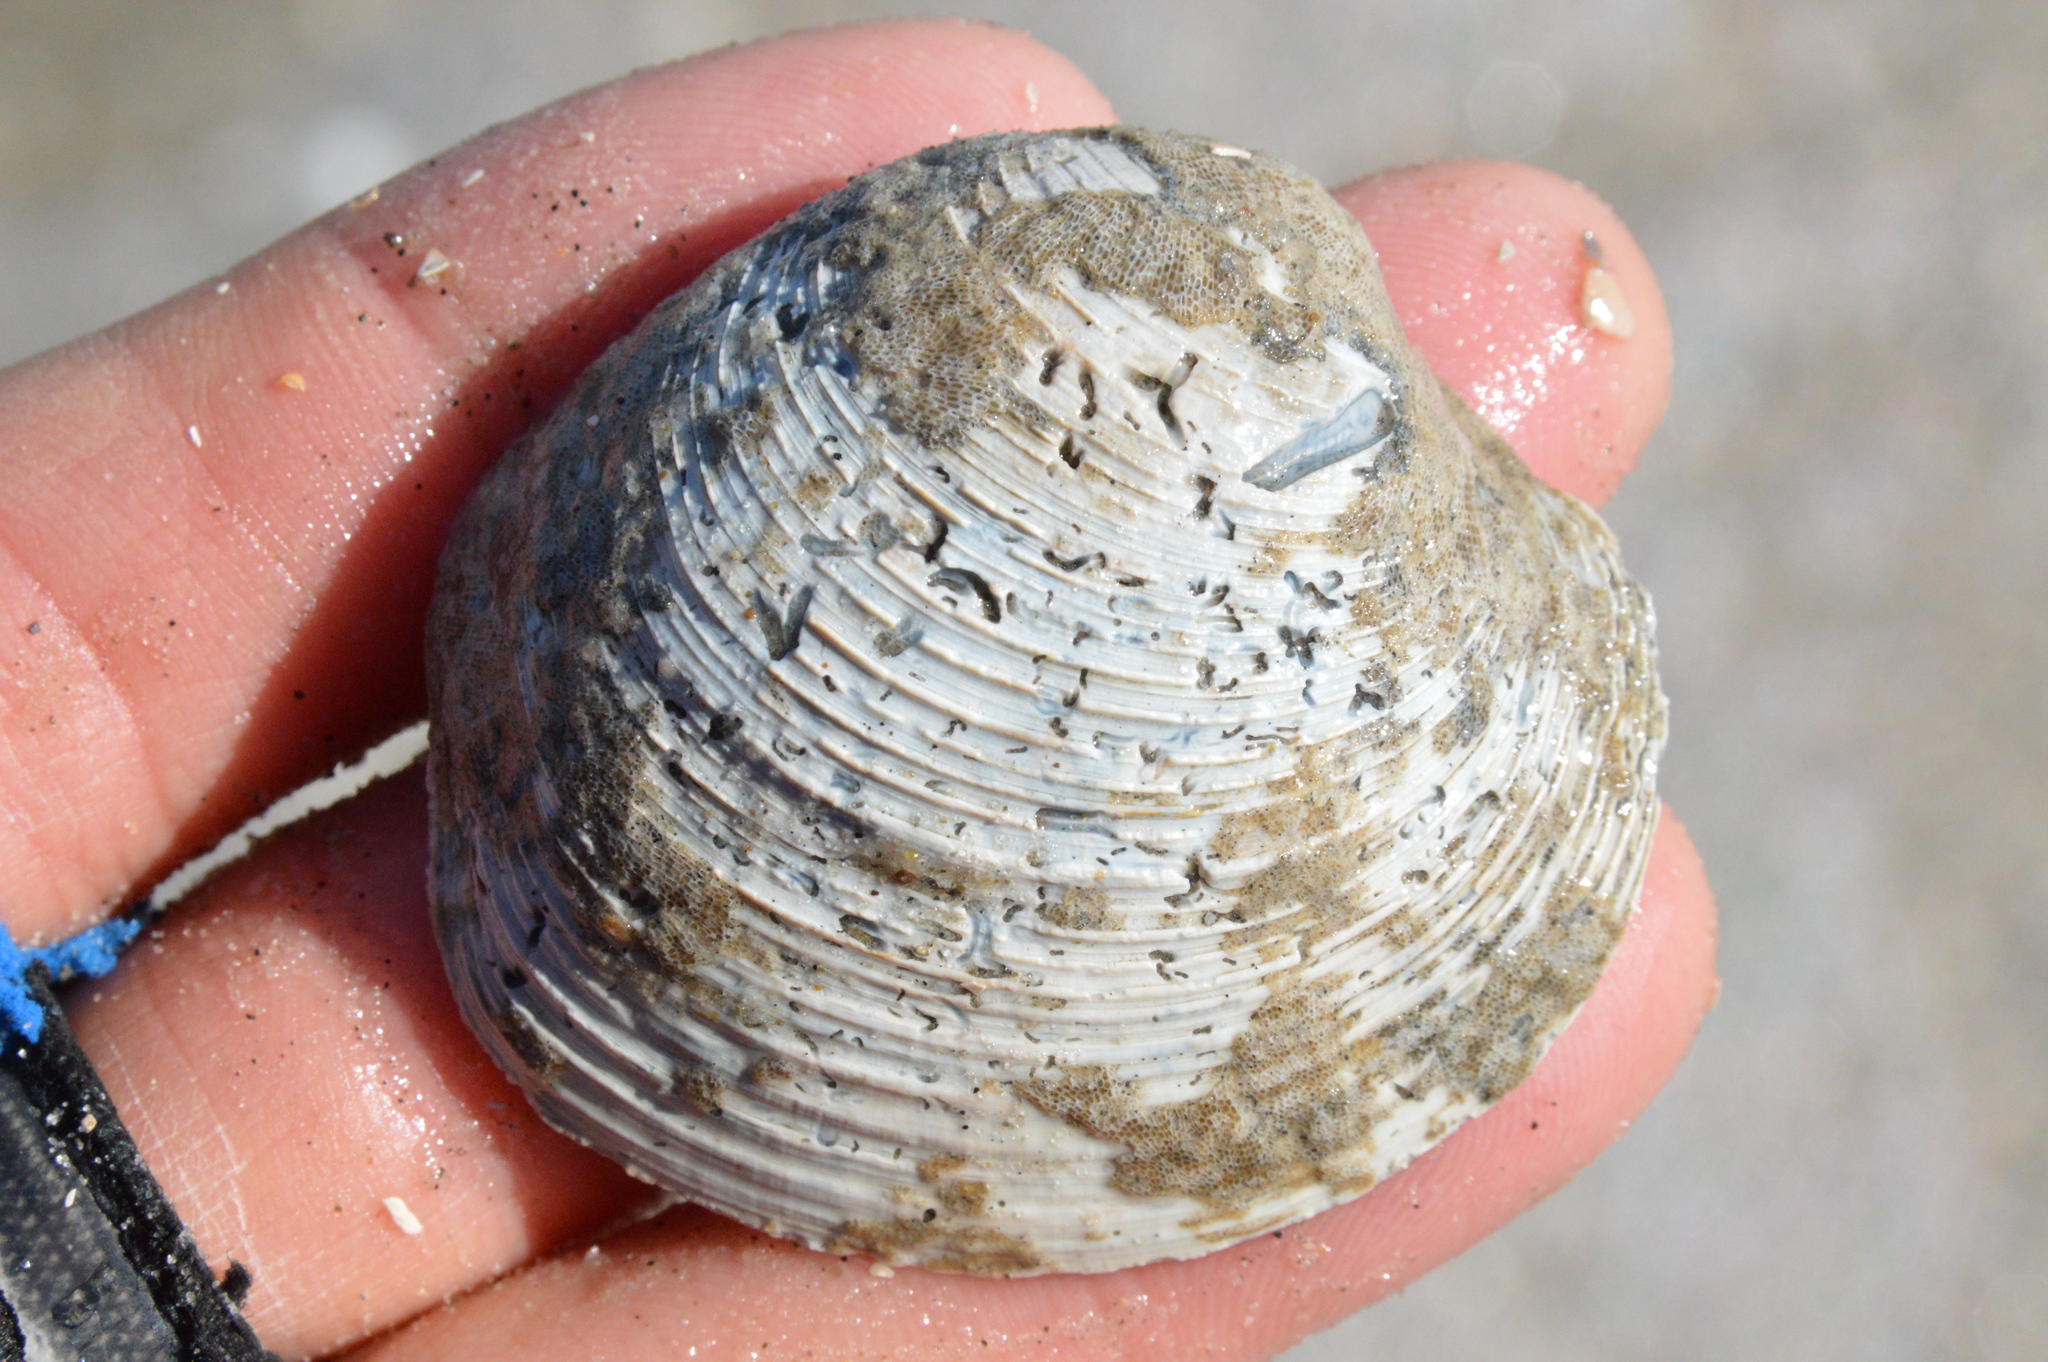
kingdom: Animalia
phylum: Mollusca
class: Bivalvia
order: Venerida
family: Veneridae
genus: Mercenaria
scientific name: Mercenaria campechiensis
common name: Südliche quahog-muschel
